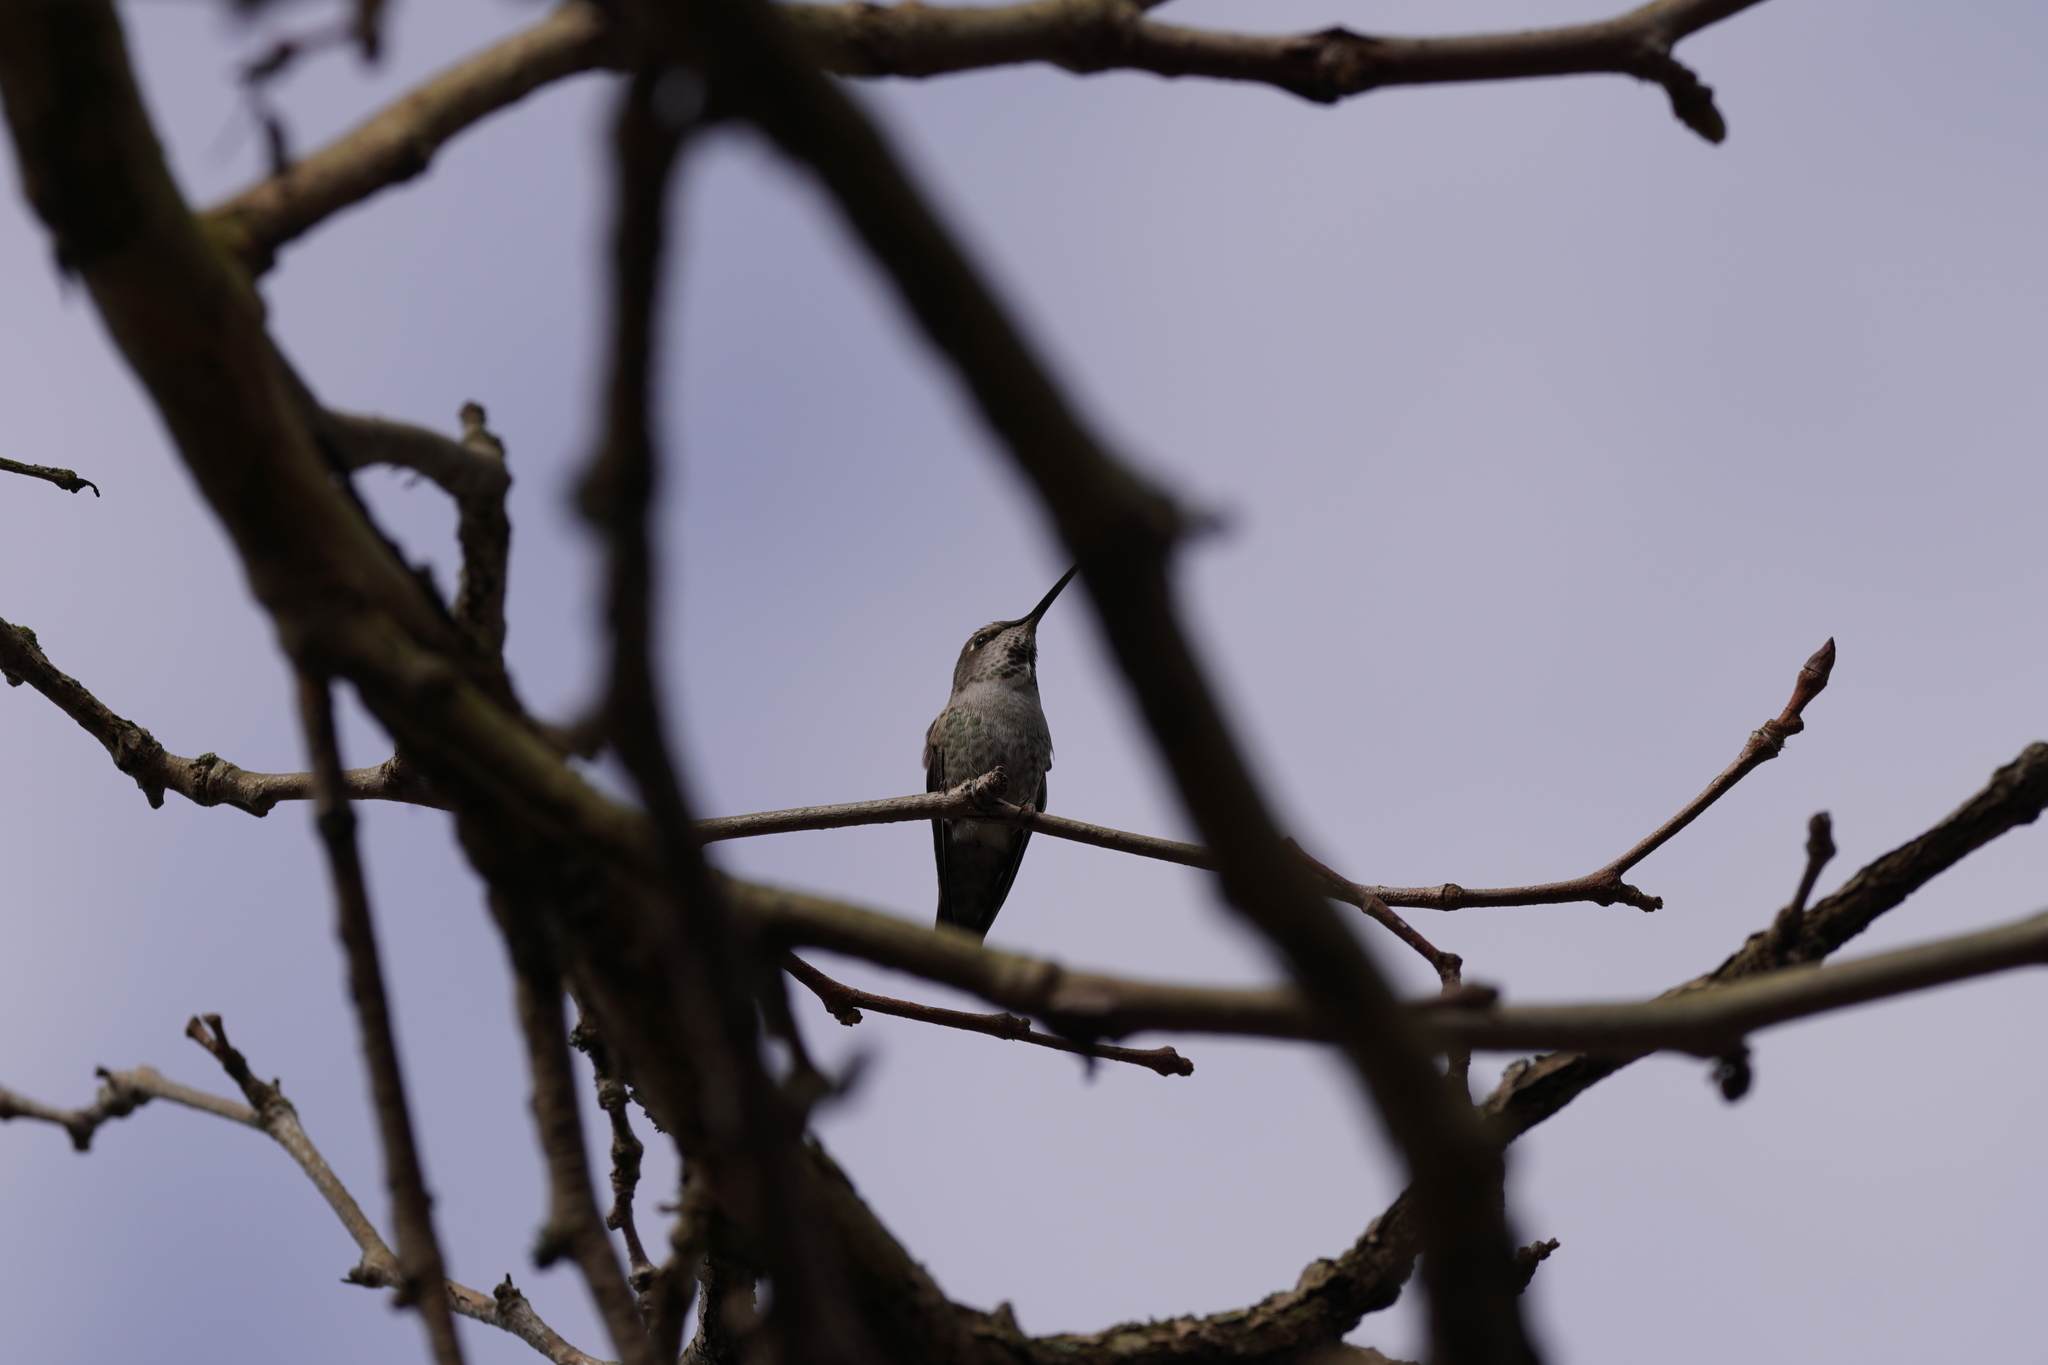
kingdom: Animalia
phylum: Chordata
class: Aves
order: Apodiformes
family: Trochilidae
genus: Calypte
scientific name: Calypte anna
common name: Anna's hummingbird
